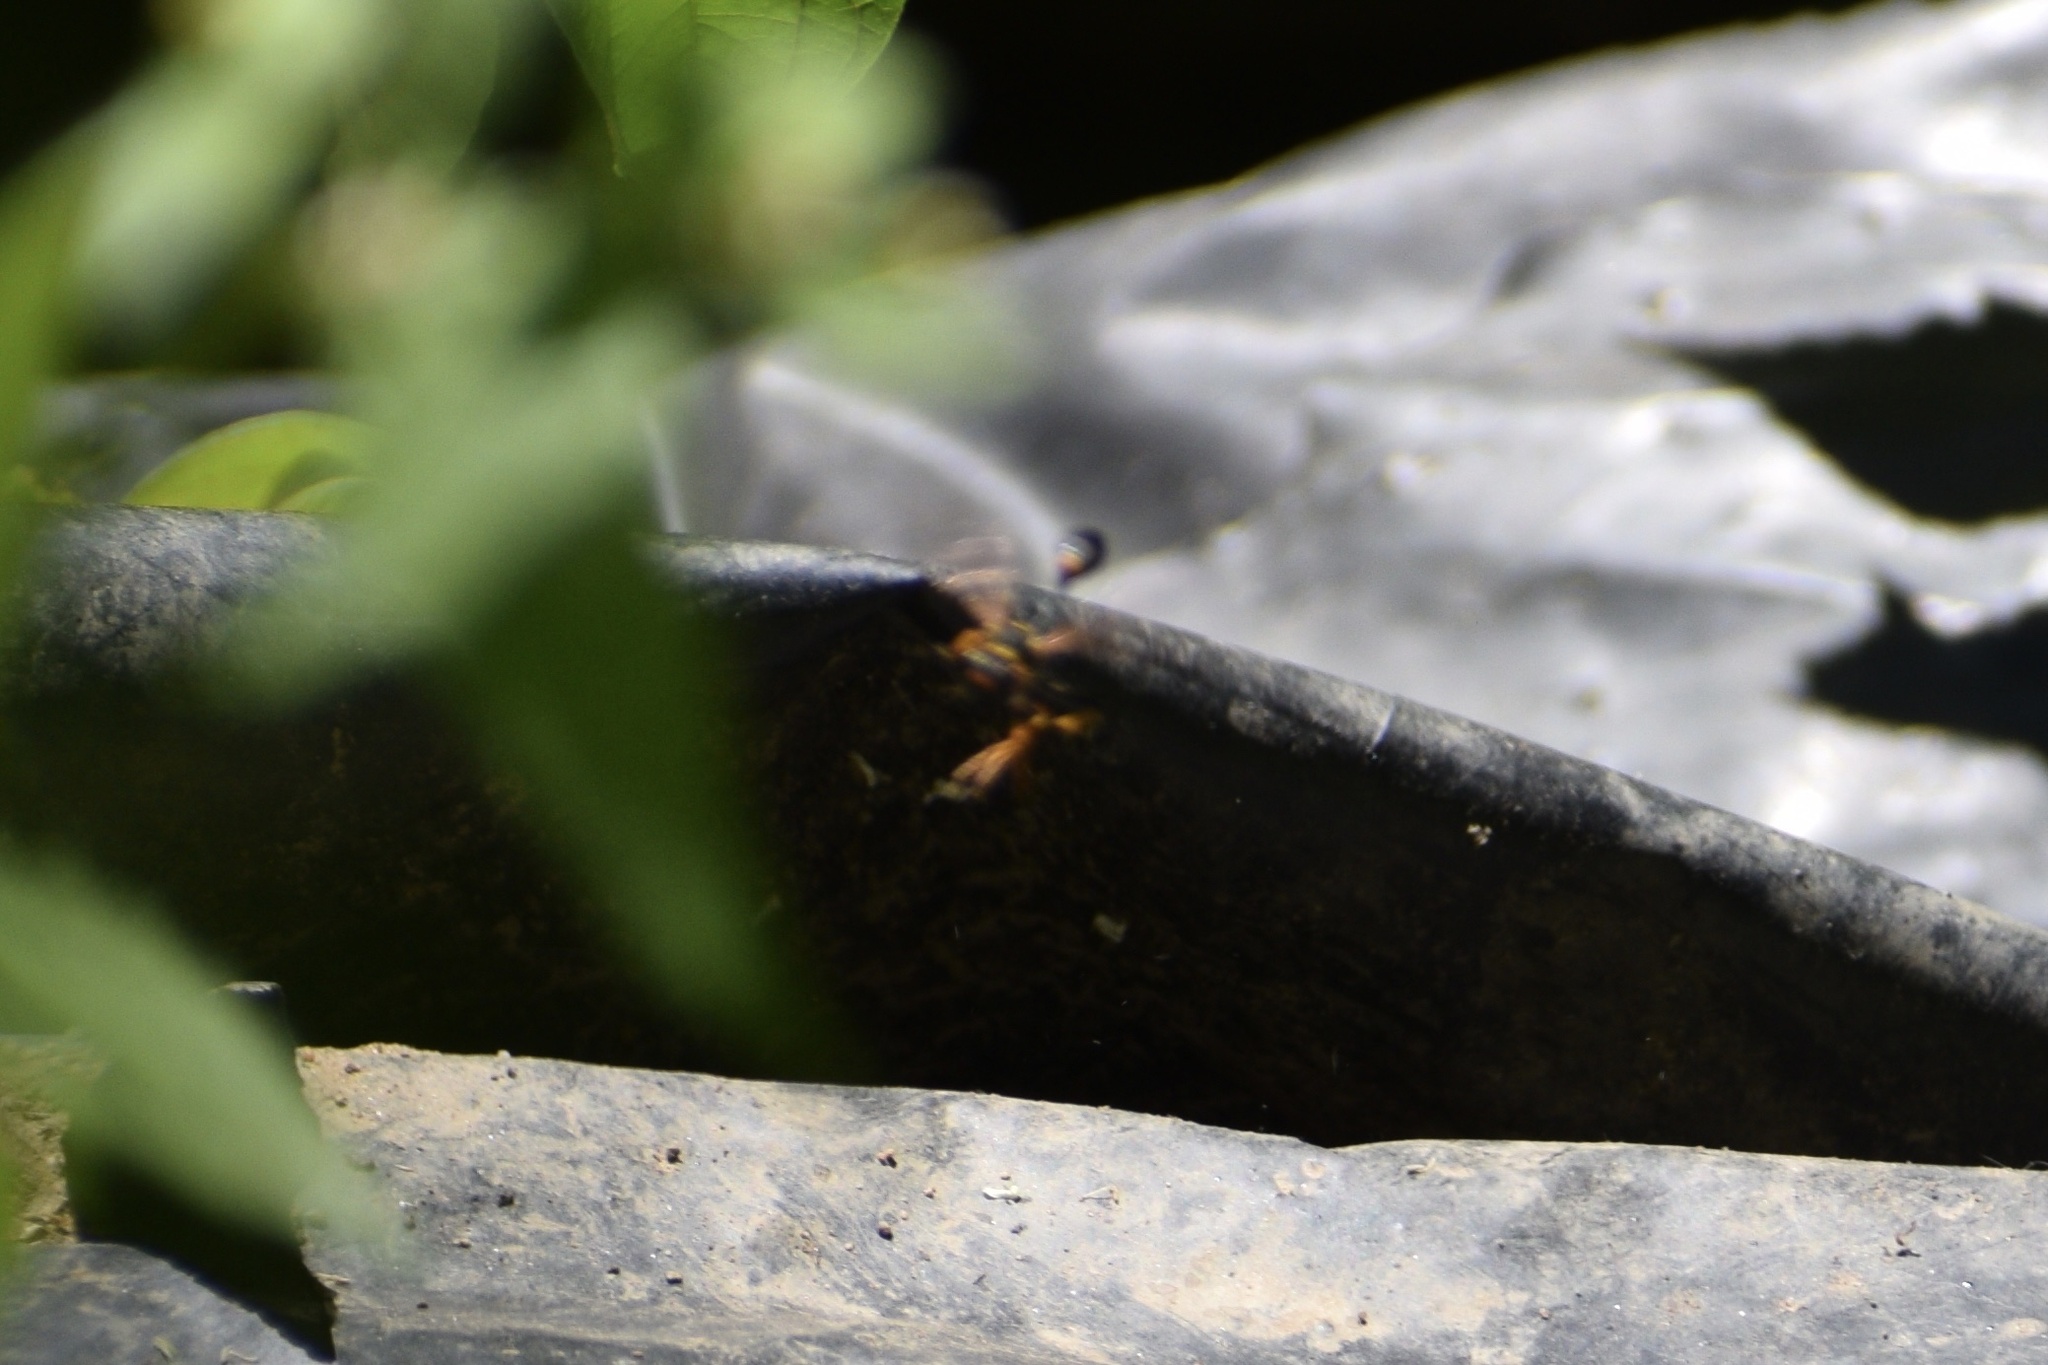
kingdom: Animalia
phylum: Arthropoda
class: Insecta
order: Hymenoptera
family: Sphecidae
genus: Sceliphron
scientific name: Sceliphron caementarium
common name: Mud dauber
